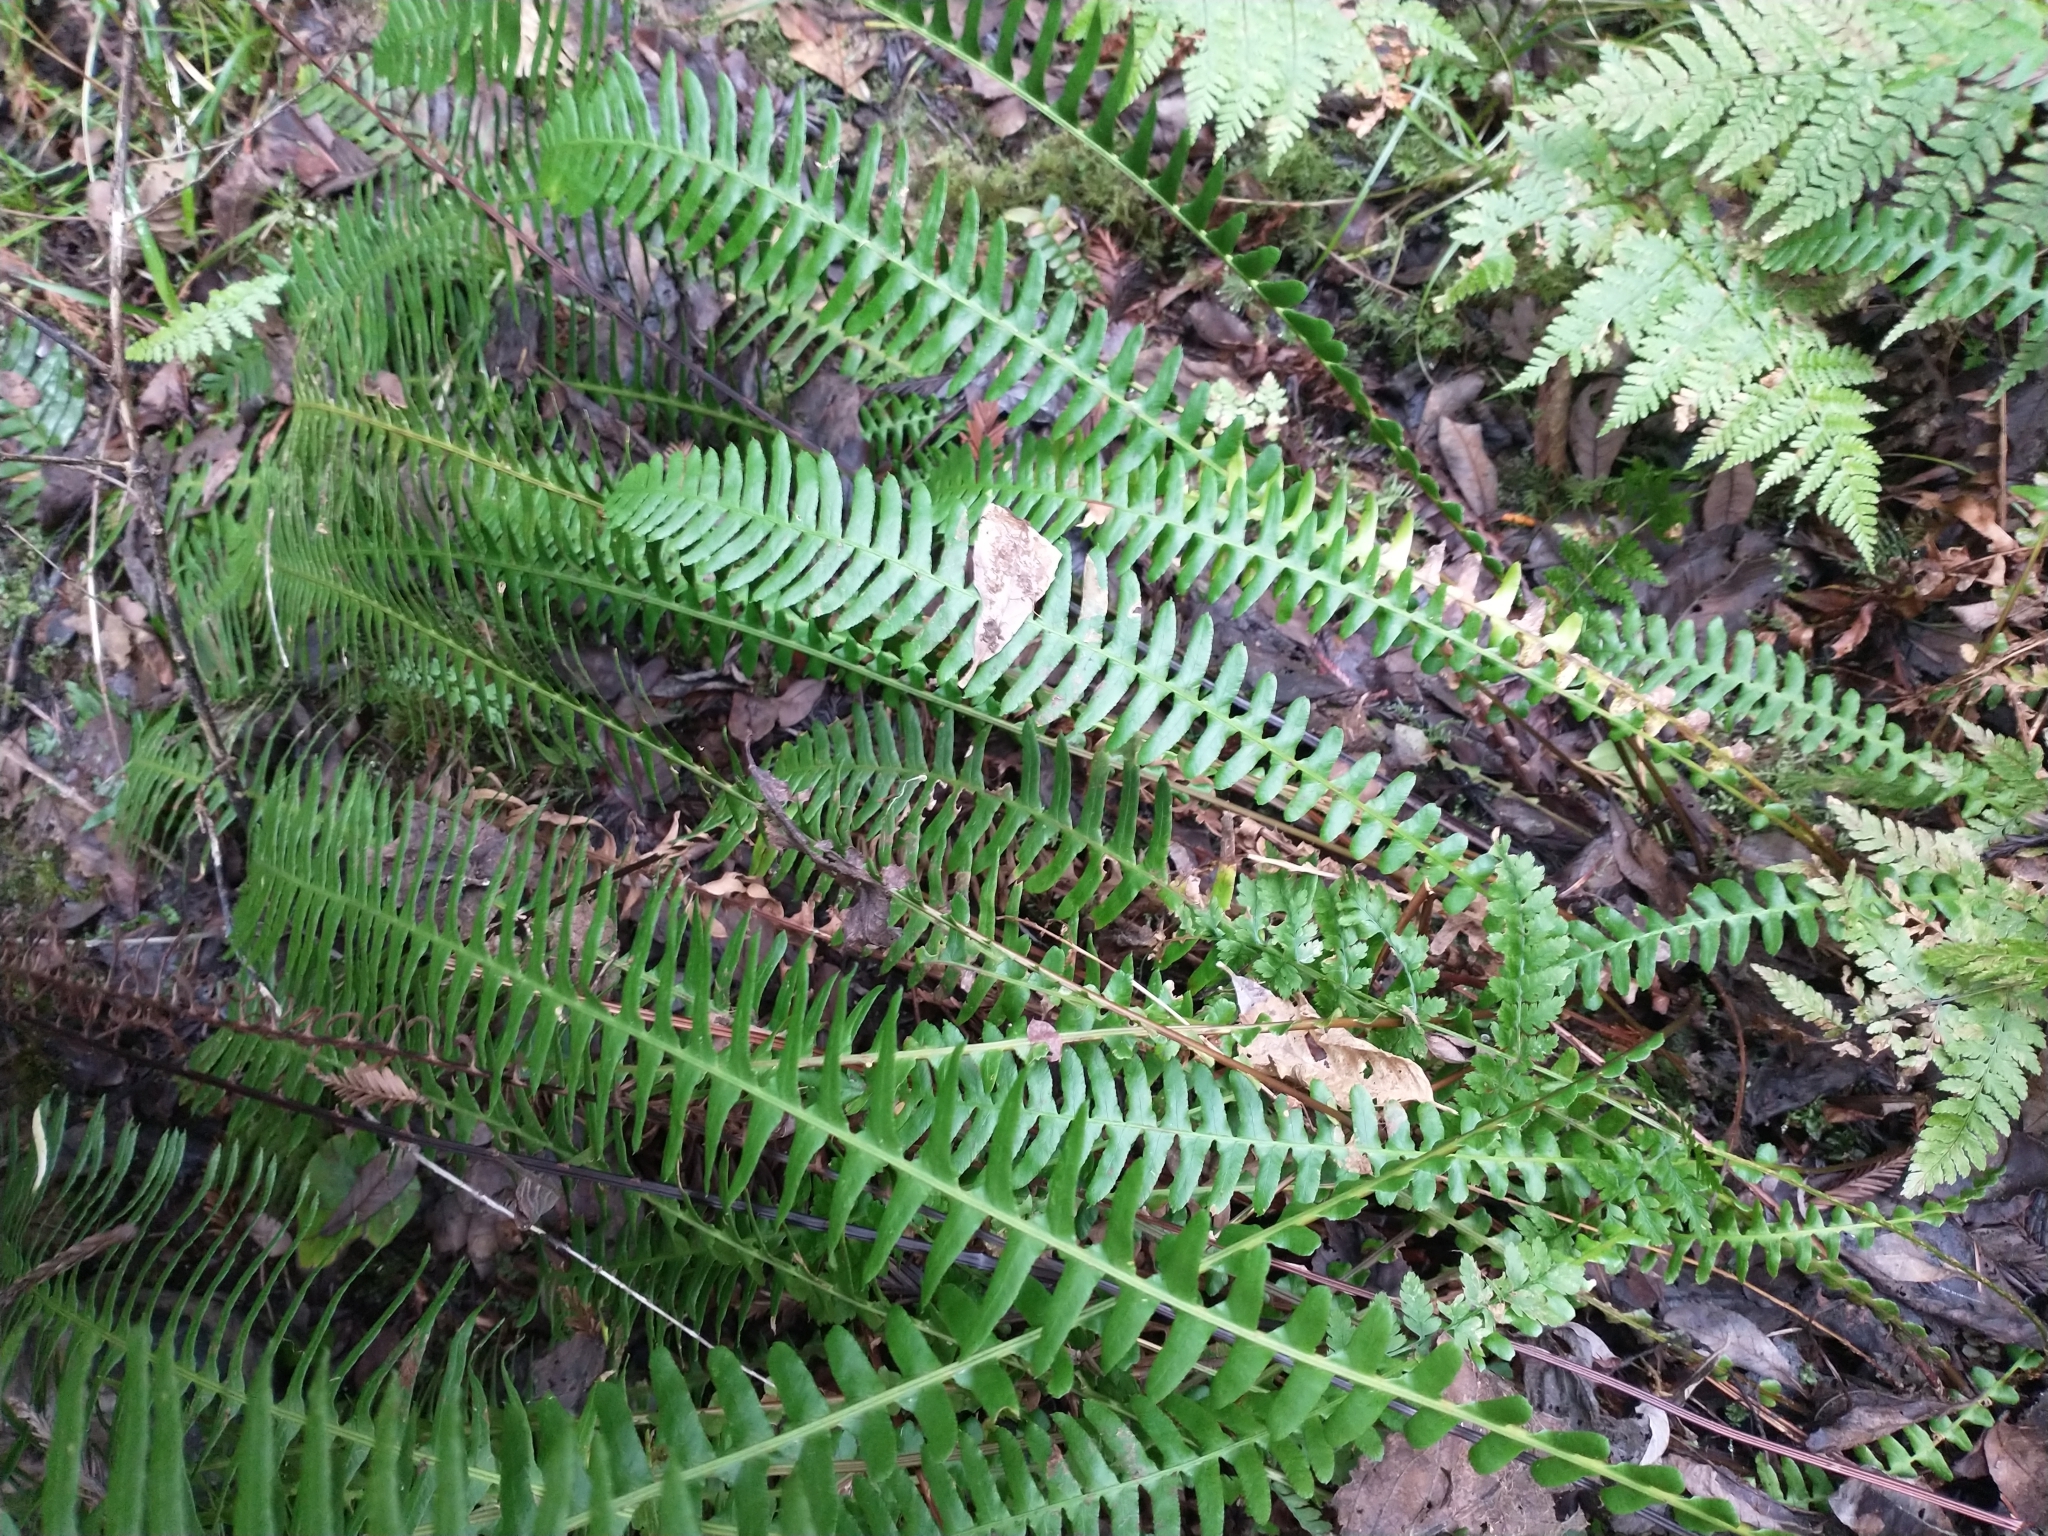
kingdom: Plantae
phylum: Tracheophyta
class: Polypodiopsida
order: Polypodiales
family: Blechnaceae
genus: Struthiopteris
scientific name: Struthiopteris spicant
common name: Deer fern
